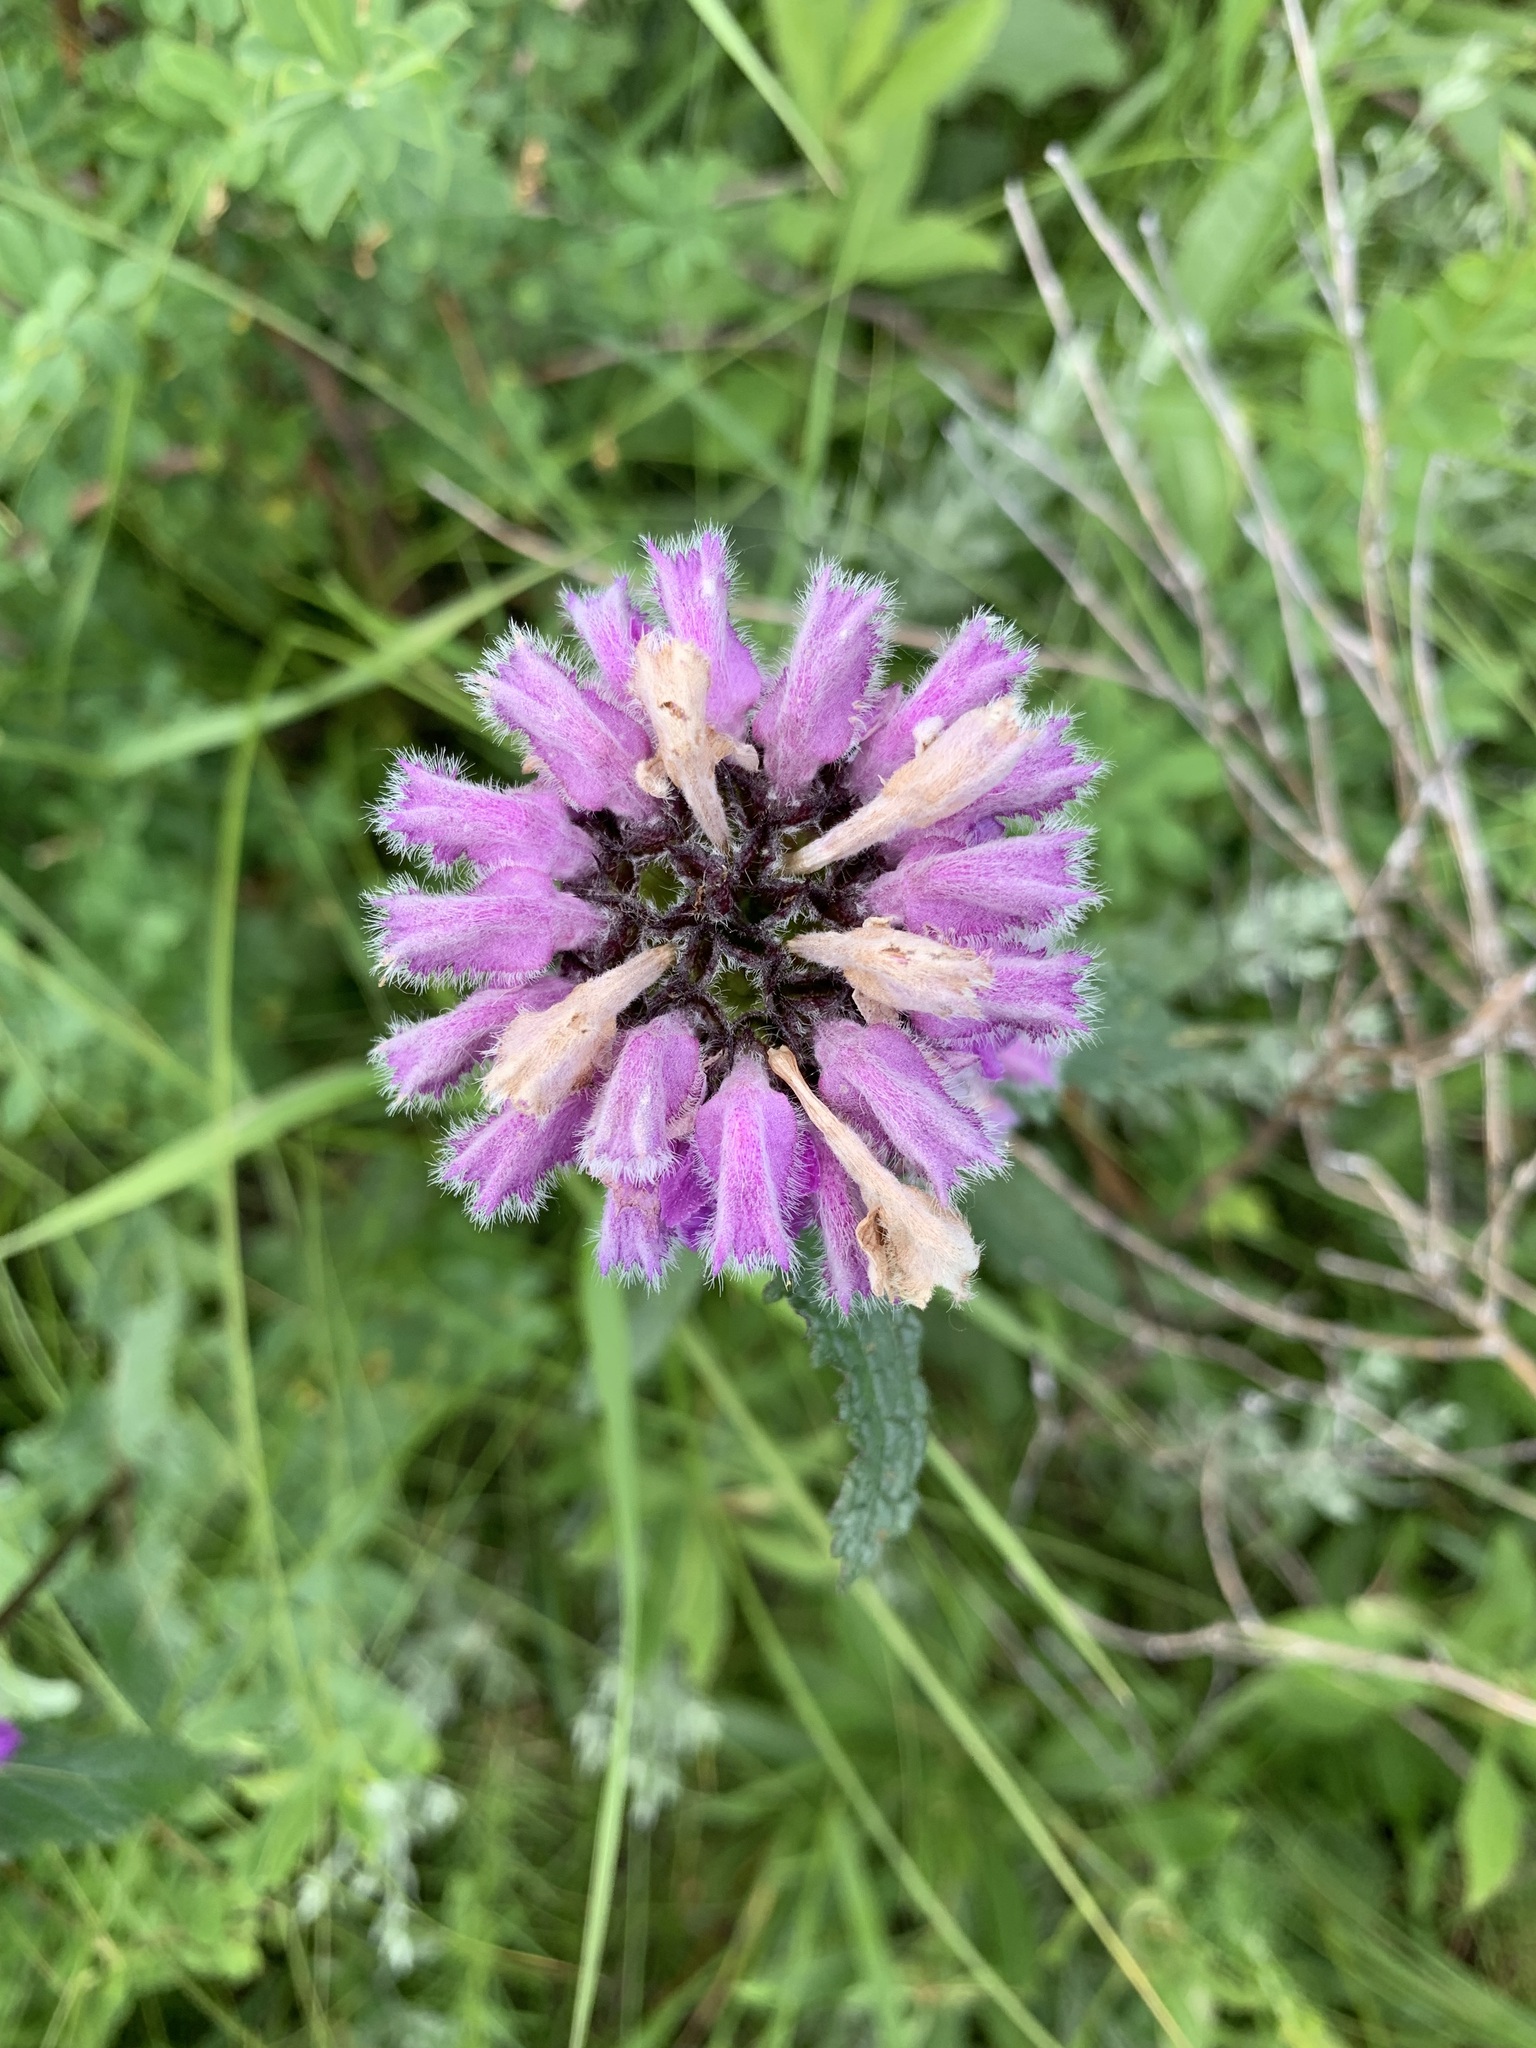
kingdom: Plantae
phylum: Tracheophyta
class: Magnoliopsida
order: Lamiales
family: Lamiaceae
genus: Phlomoides
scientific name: Phlomoides tuberosa
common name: Tuberous jerusalem sage
